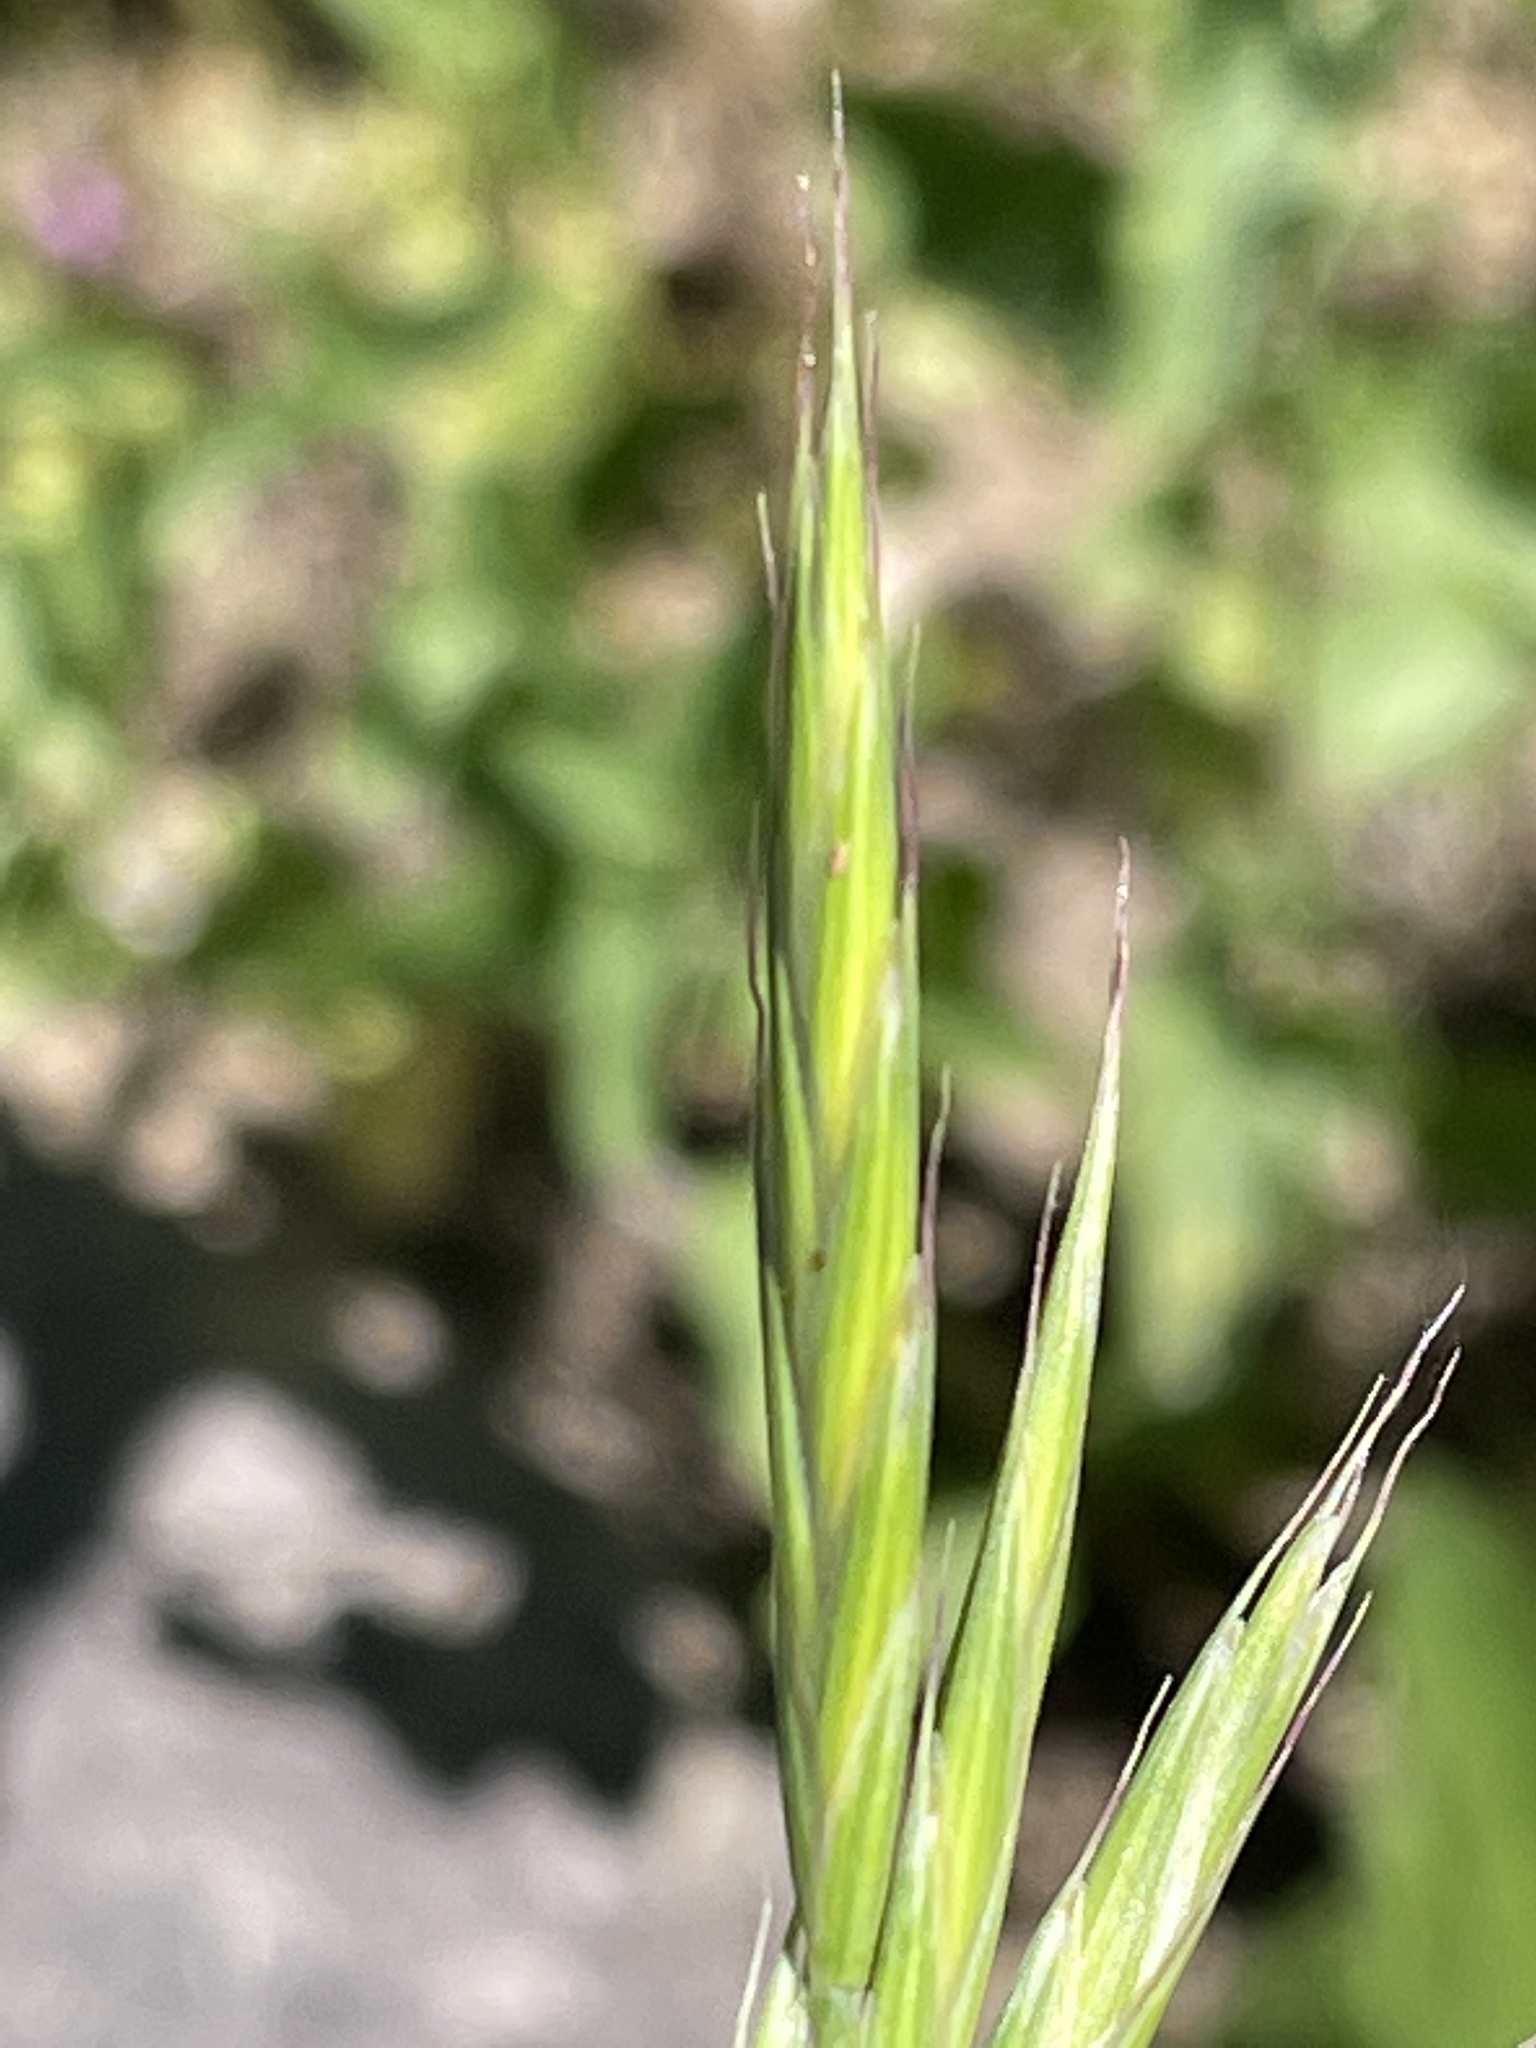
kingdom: Plantae
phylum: Tracheophyta
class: Liliopsida
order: Poales
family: Poaceae
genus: Bromus
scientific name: Bromus marginatus
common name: Western brome
